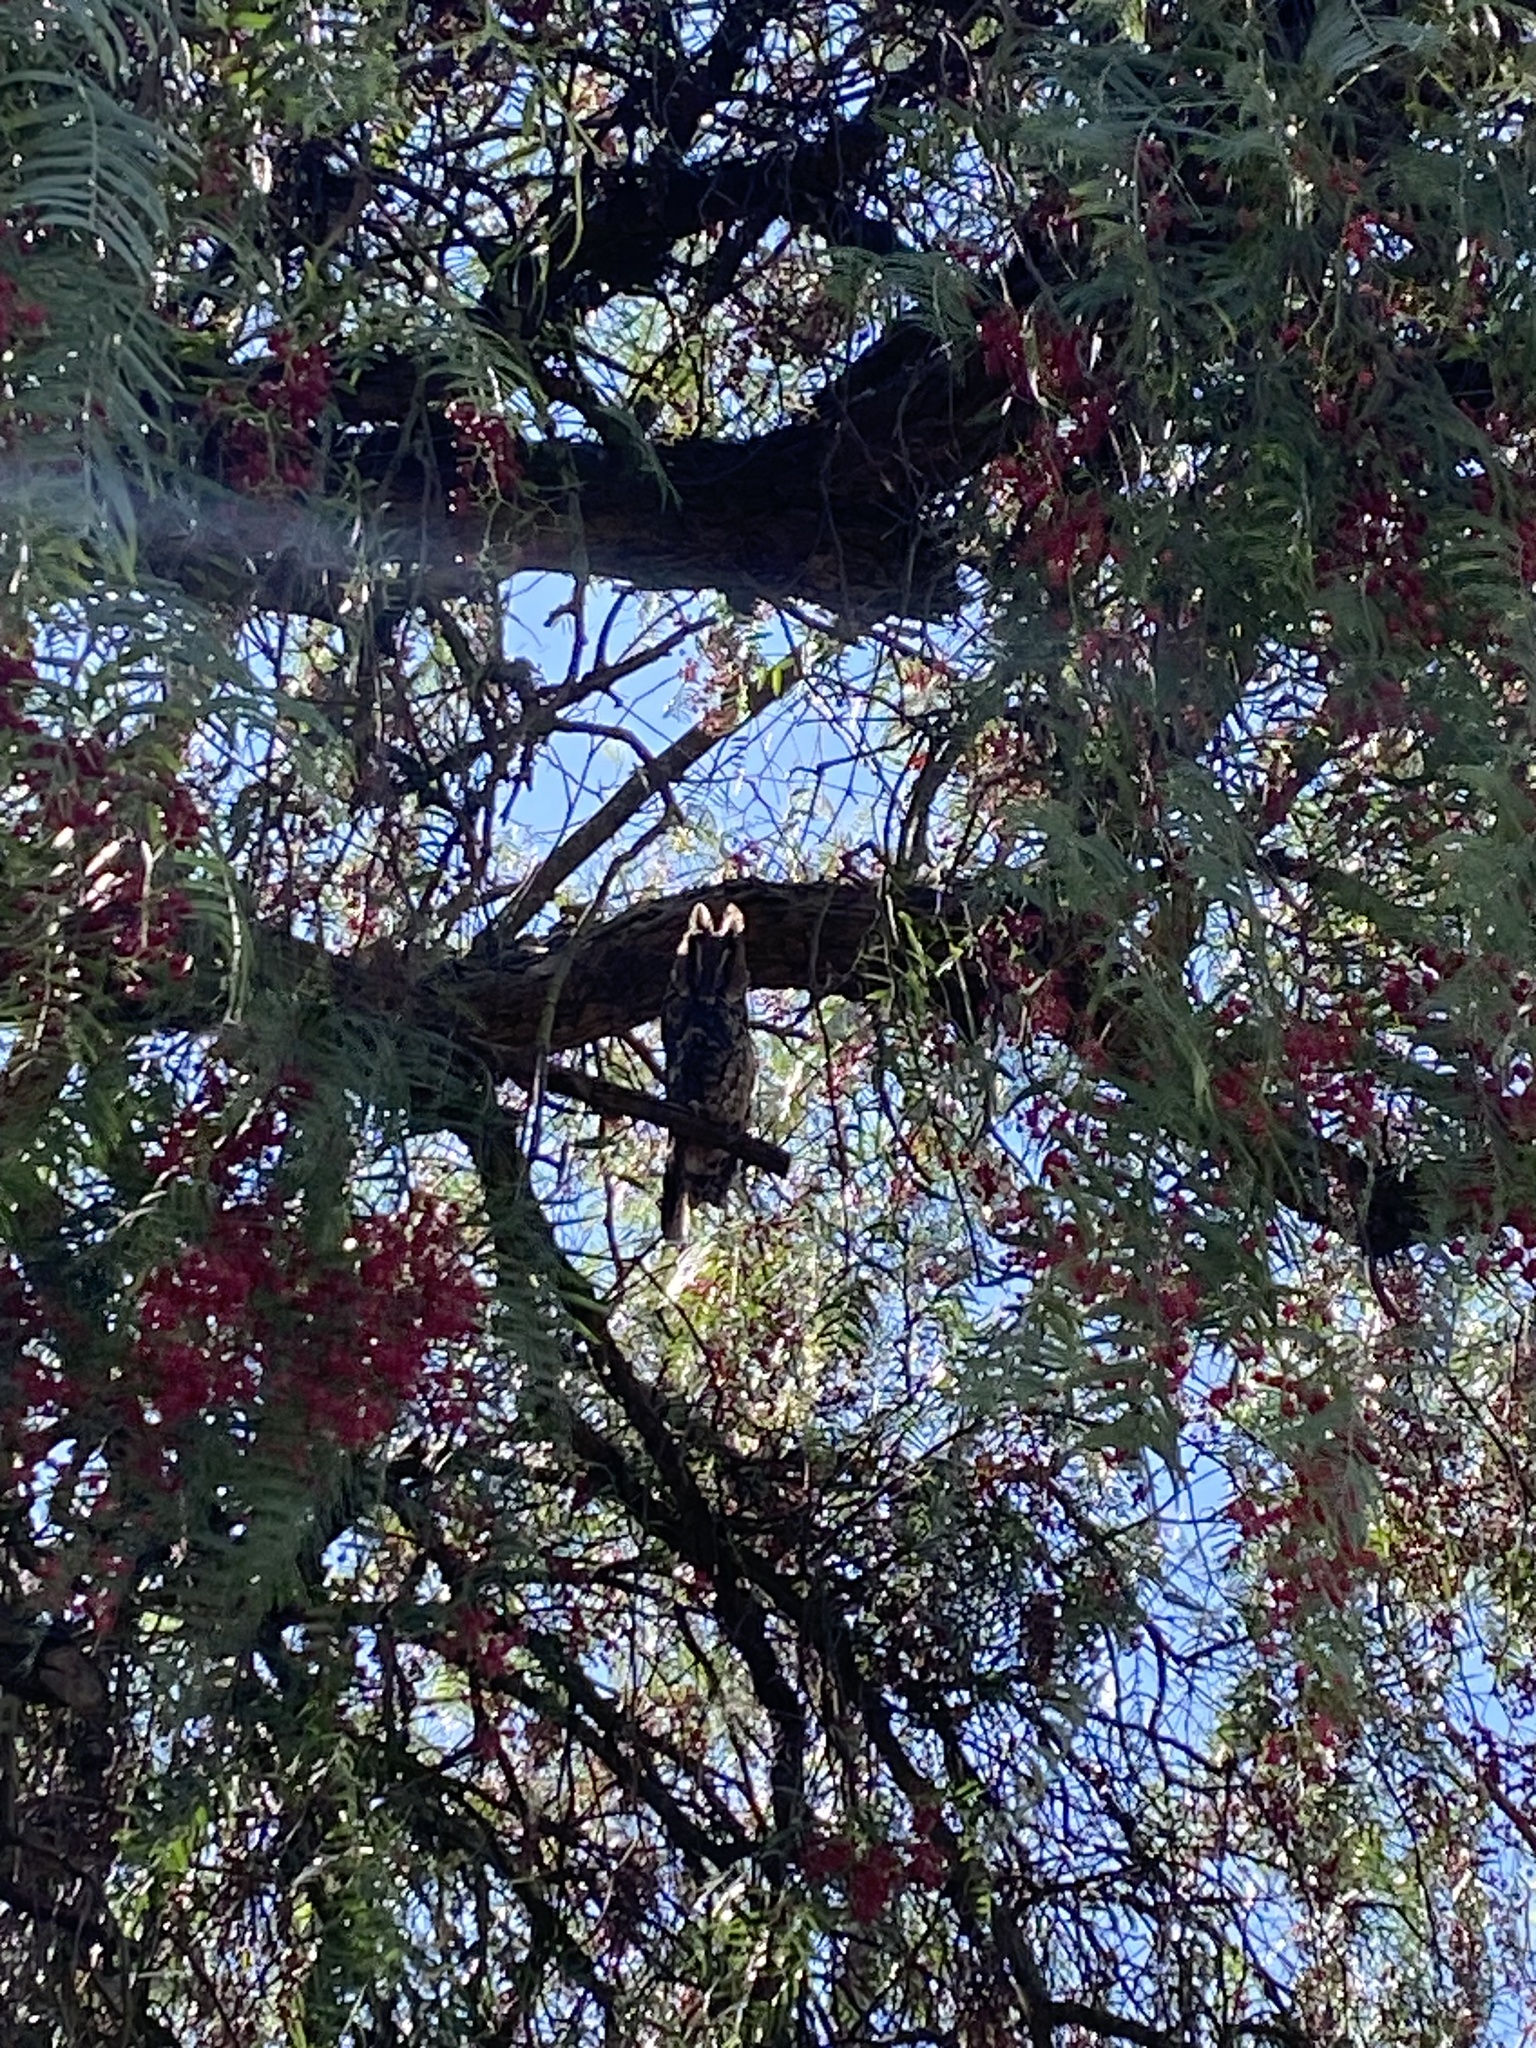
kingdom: Animalia
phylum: Chordata
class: Aves
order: Strigiformes
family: Strigidae
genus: Asio
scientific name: Asio otus
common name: Long-eared owl
